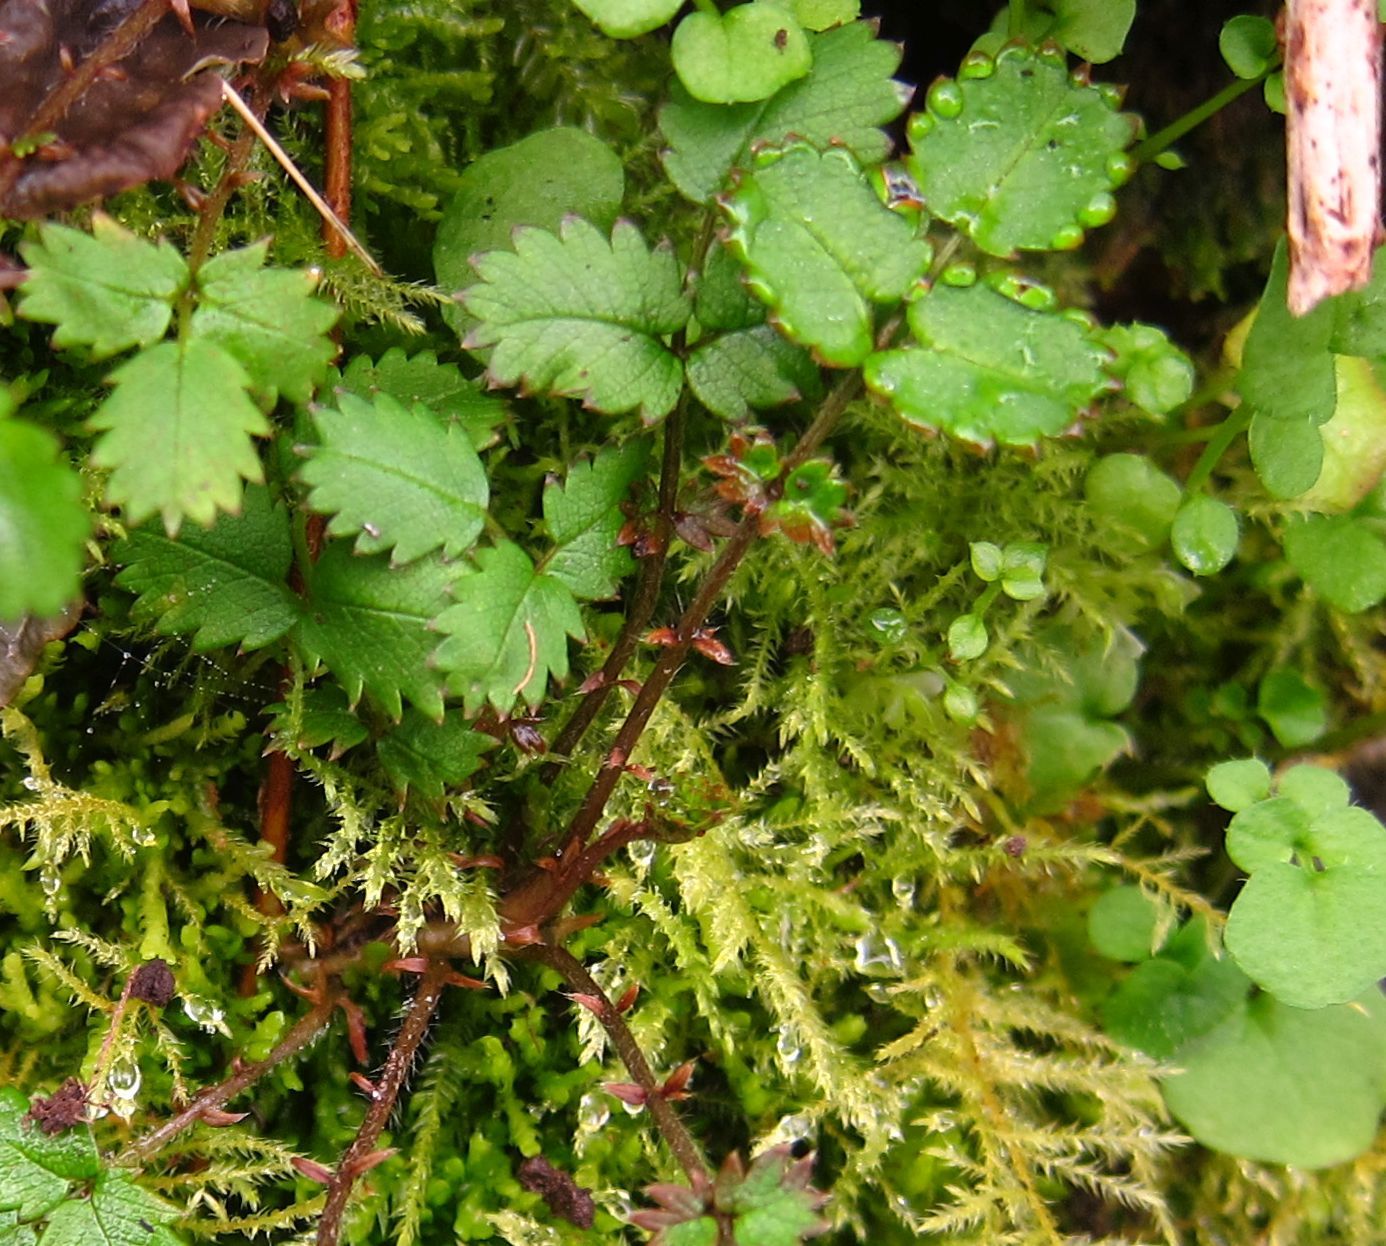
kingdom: Plantae
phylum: Tracheophyta
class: Magnoliopsida
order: Rosales
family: Rosaceae
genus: Acaena
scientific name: Acaena juvenca
